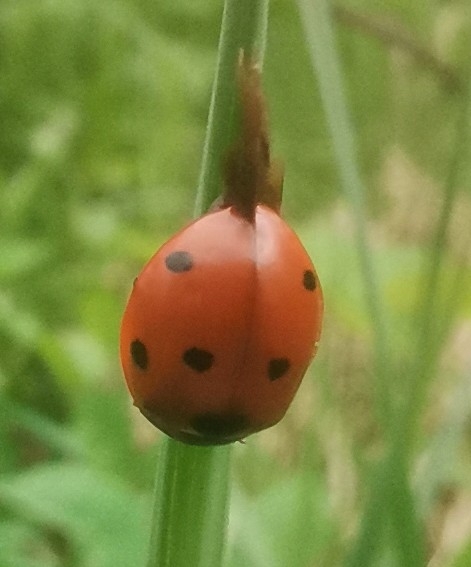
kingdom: Animalia
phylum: Arthropoda
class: Insecta
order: Coleoptera
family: Coccinellidae
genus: Coccinella
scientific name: Coccinella septempunctata
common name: Sevenspotted lady beetle
